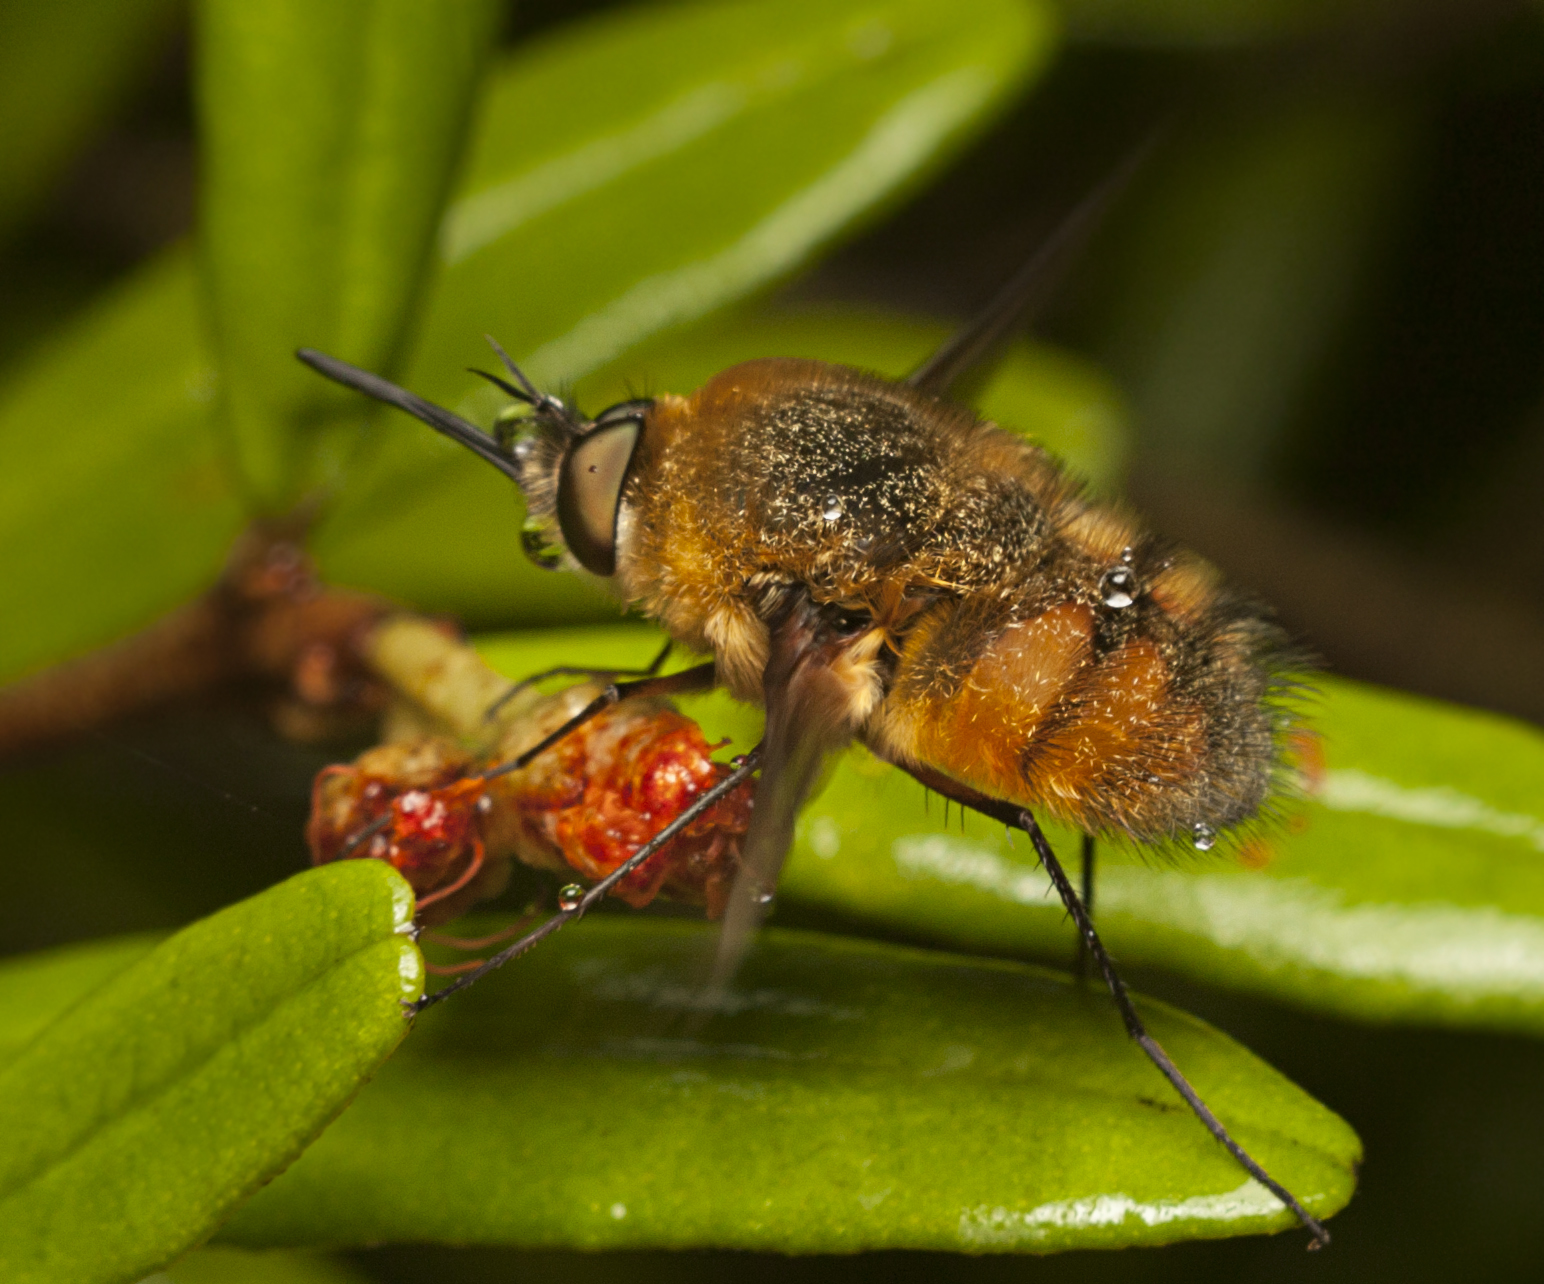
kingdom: Animalia
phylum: Arthropoda
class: Insecta
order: Diptera
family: Bombyliidae
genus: Eristalopsis
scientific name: Eristalopsis wrightae
